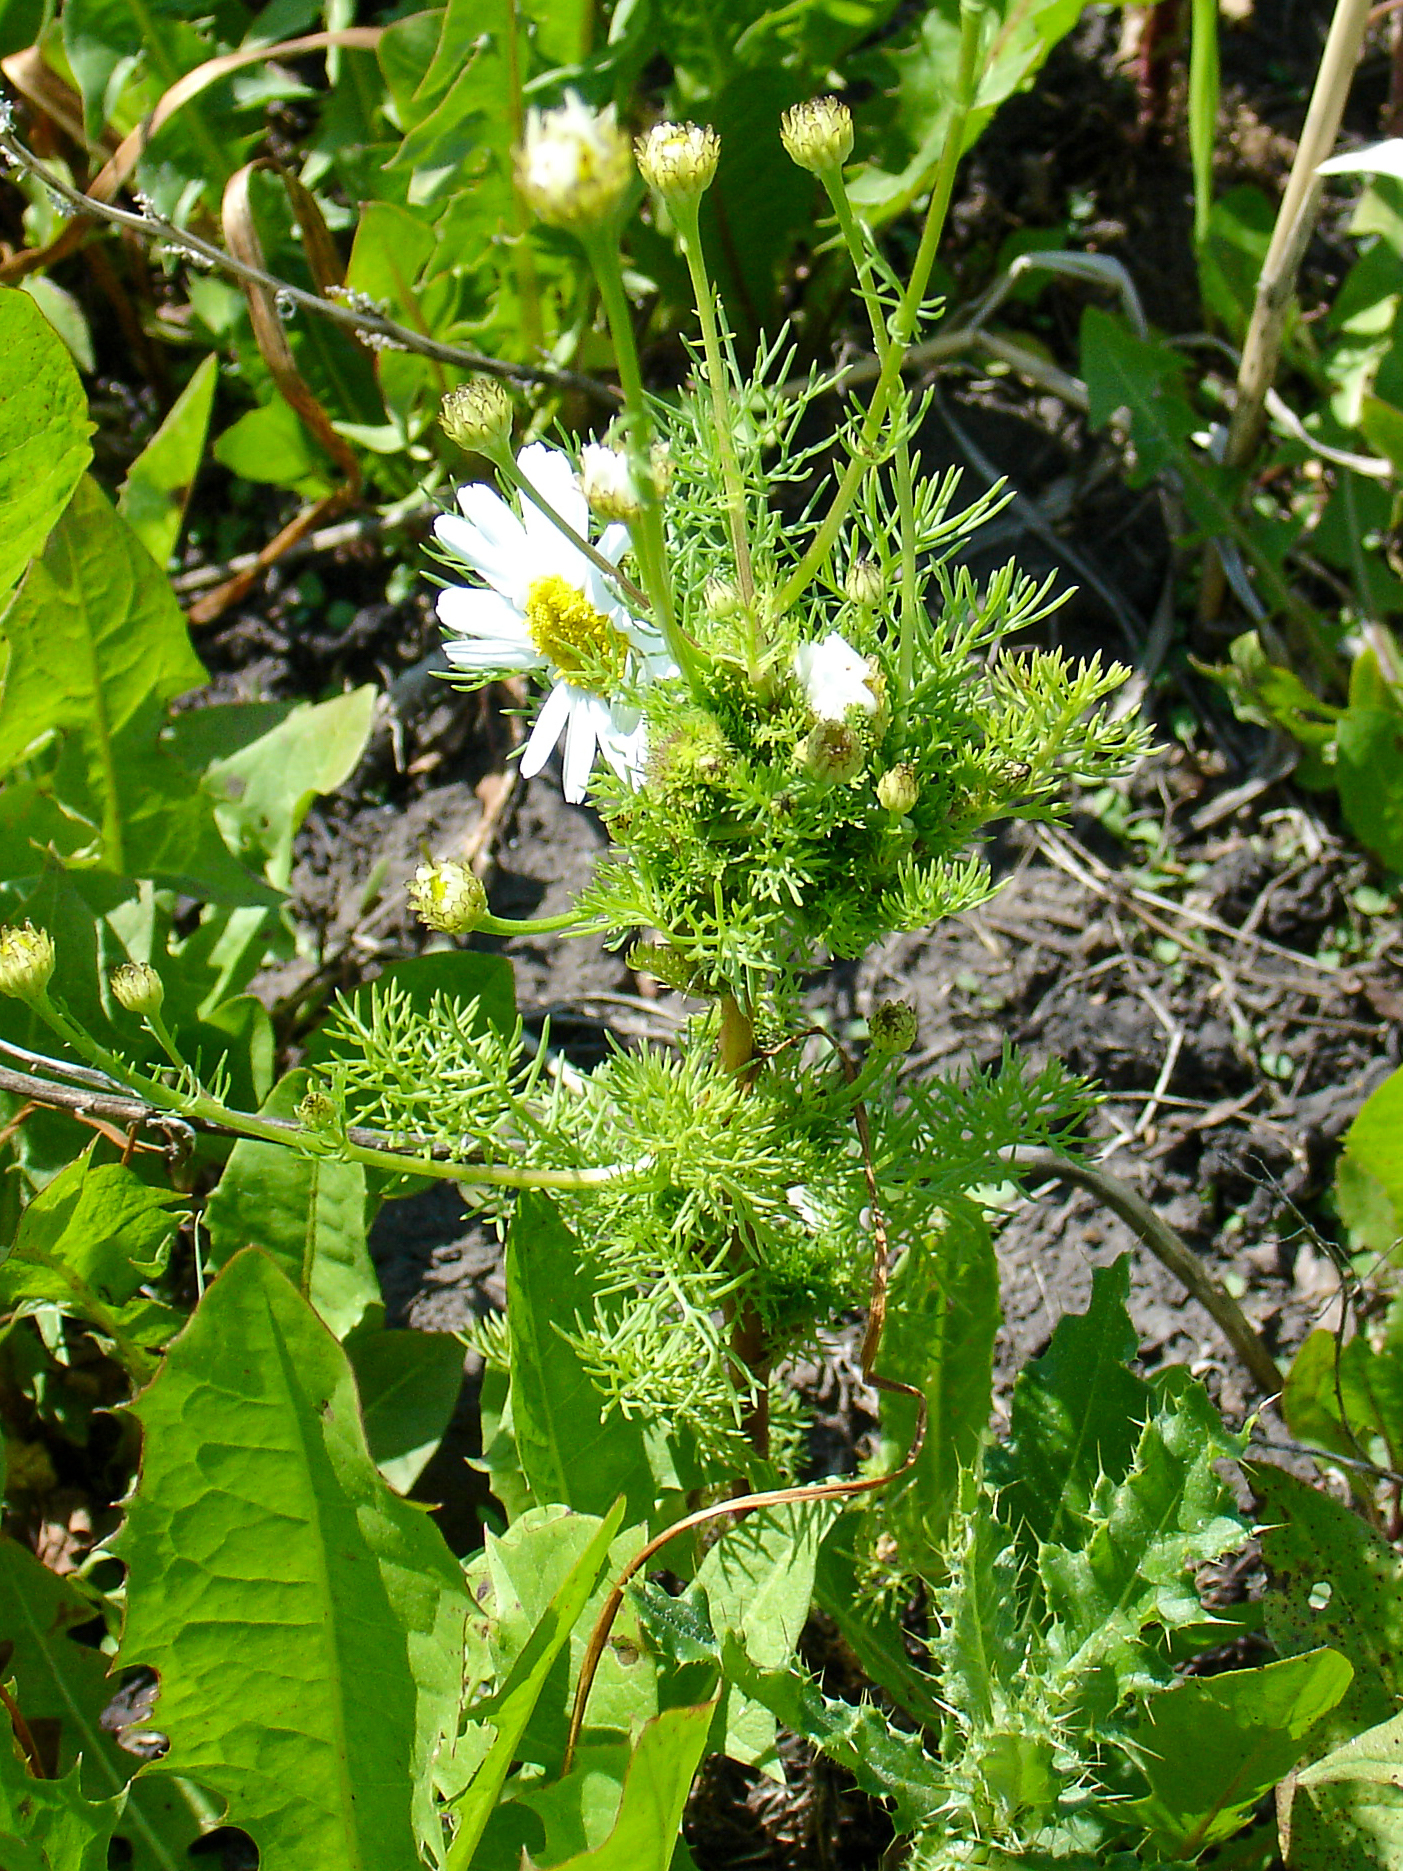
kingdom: Animalia
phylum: Arthropoda
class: Insecta
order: Diptera
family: Cecidomyiidae
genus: Rhopalomyia
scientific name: Rhopalomyia tripleurospermi
